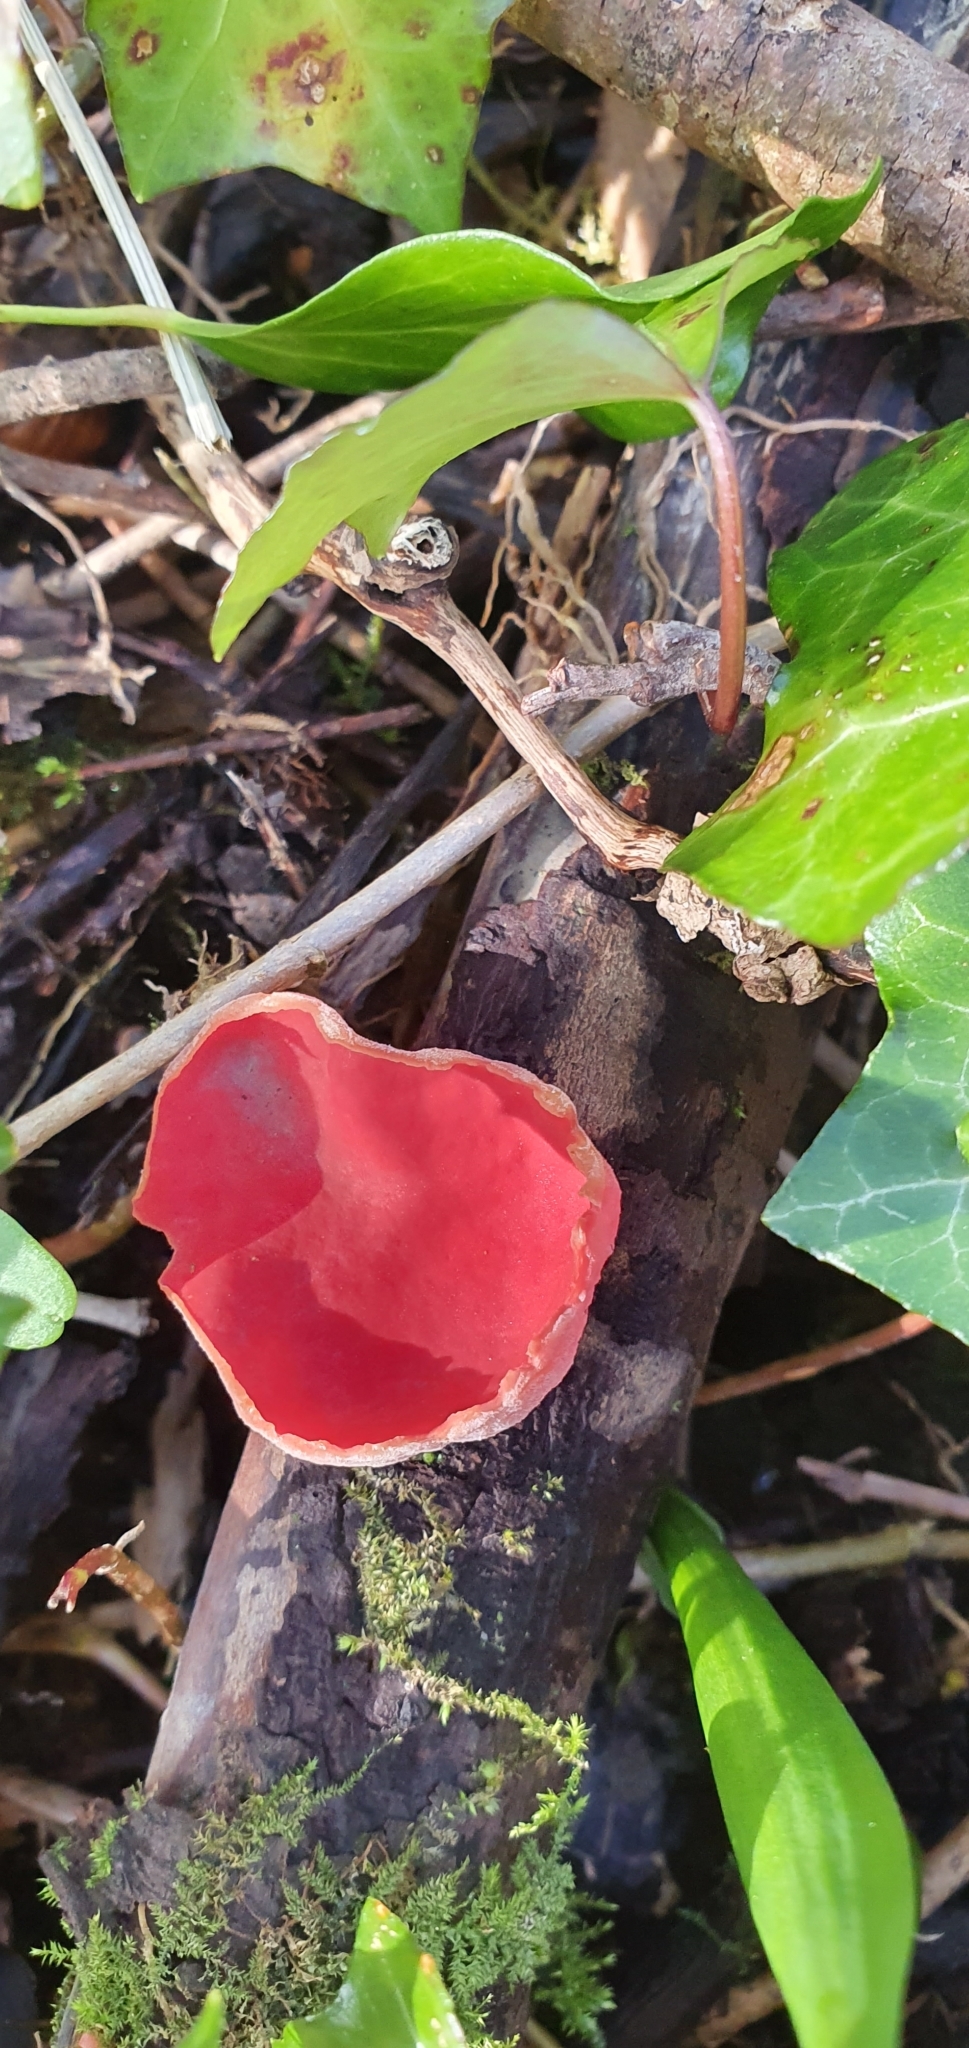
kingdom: Fungi
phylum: Ascomycota
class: Pezizomycetes
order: Pezizales
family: Sarcoscyphaceae
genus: Sarcoscypha
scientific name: Sarcoscypha
